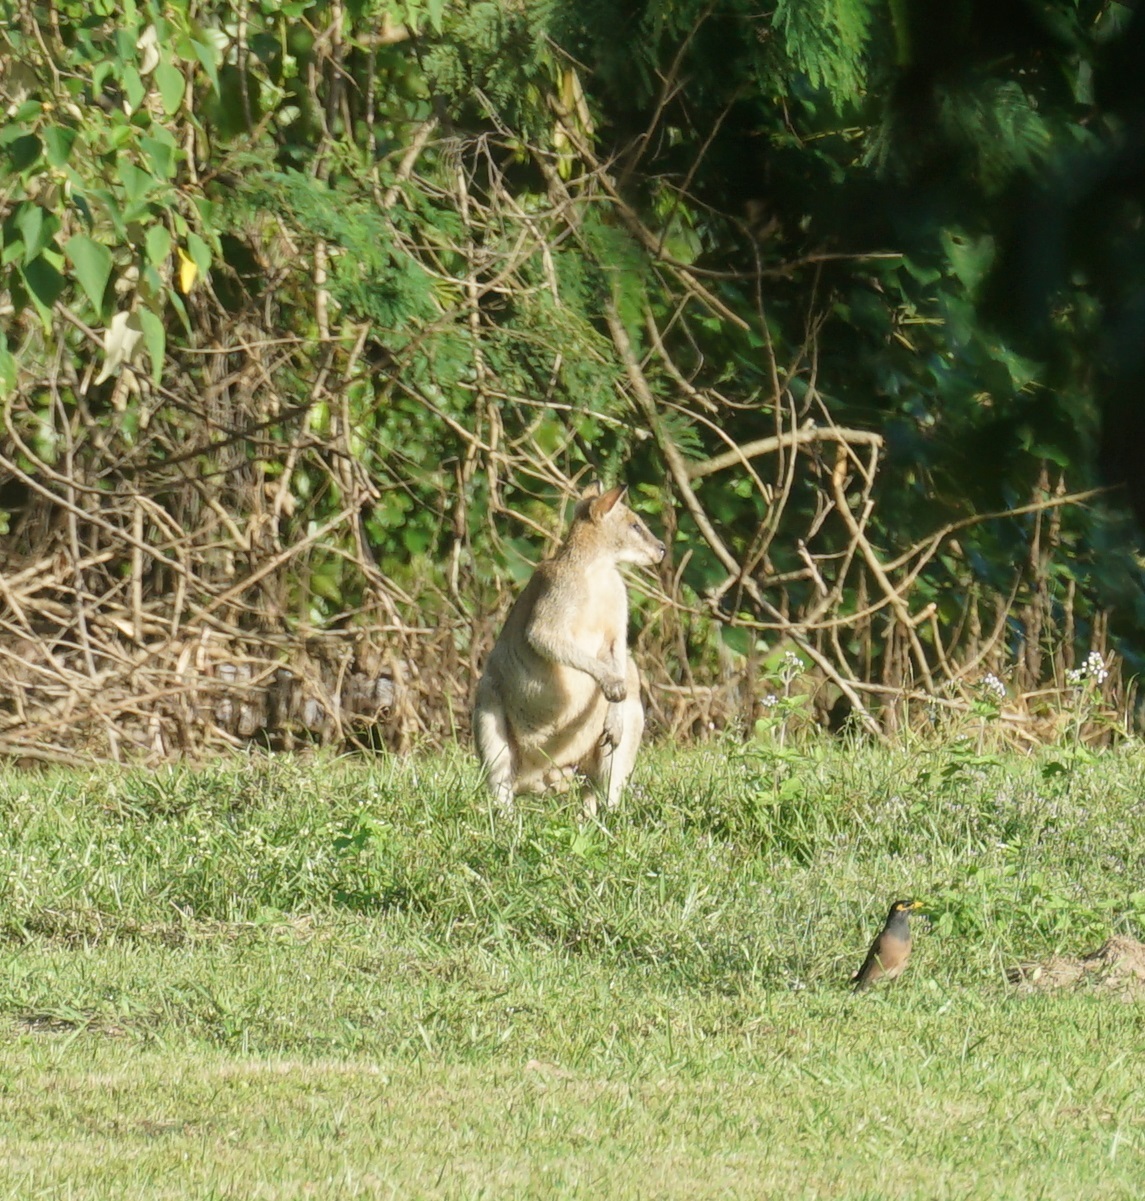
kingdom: Animalia
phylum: Chordata
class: Mammalia
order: Diprotodontia
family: Macropodidae
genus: Macropus
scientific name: Macropus agilis
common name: Agile wallaby
